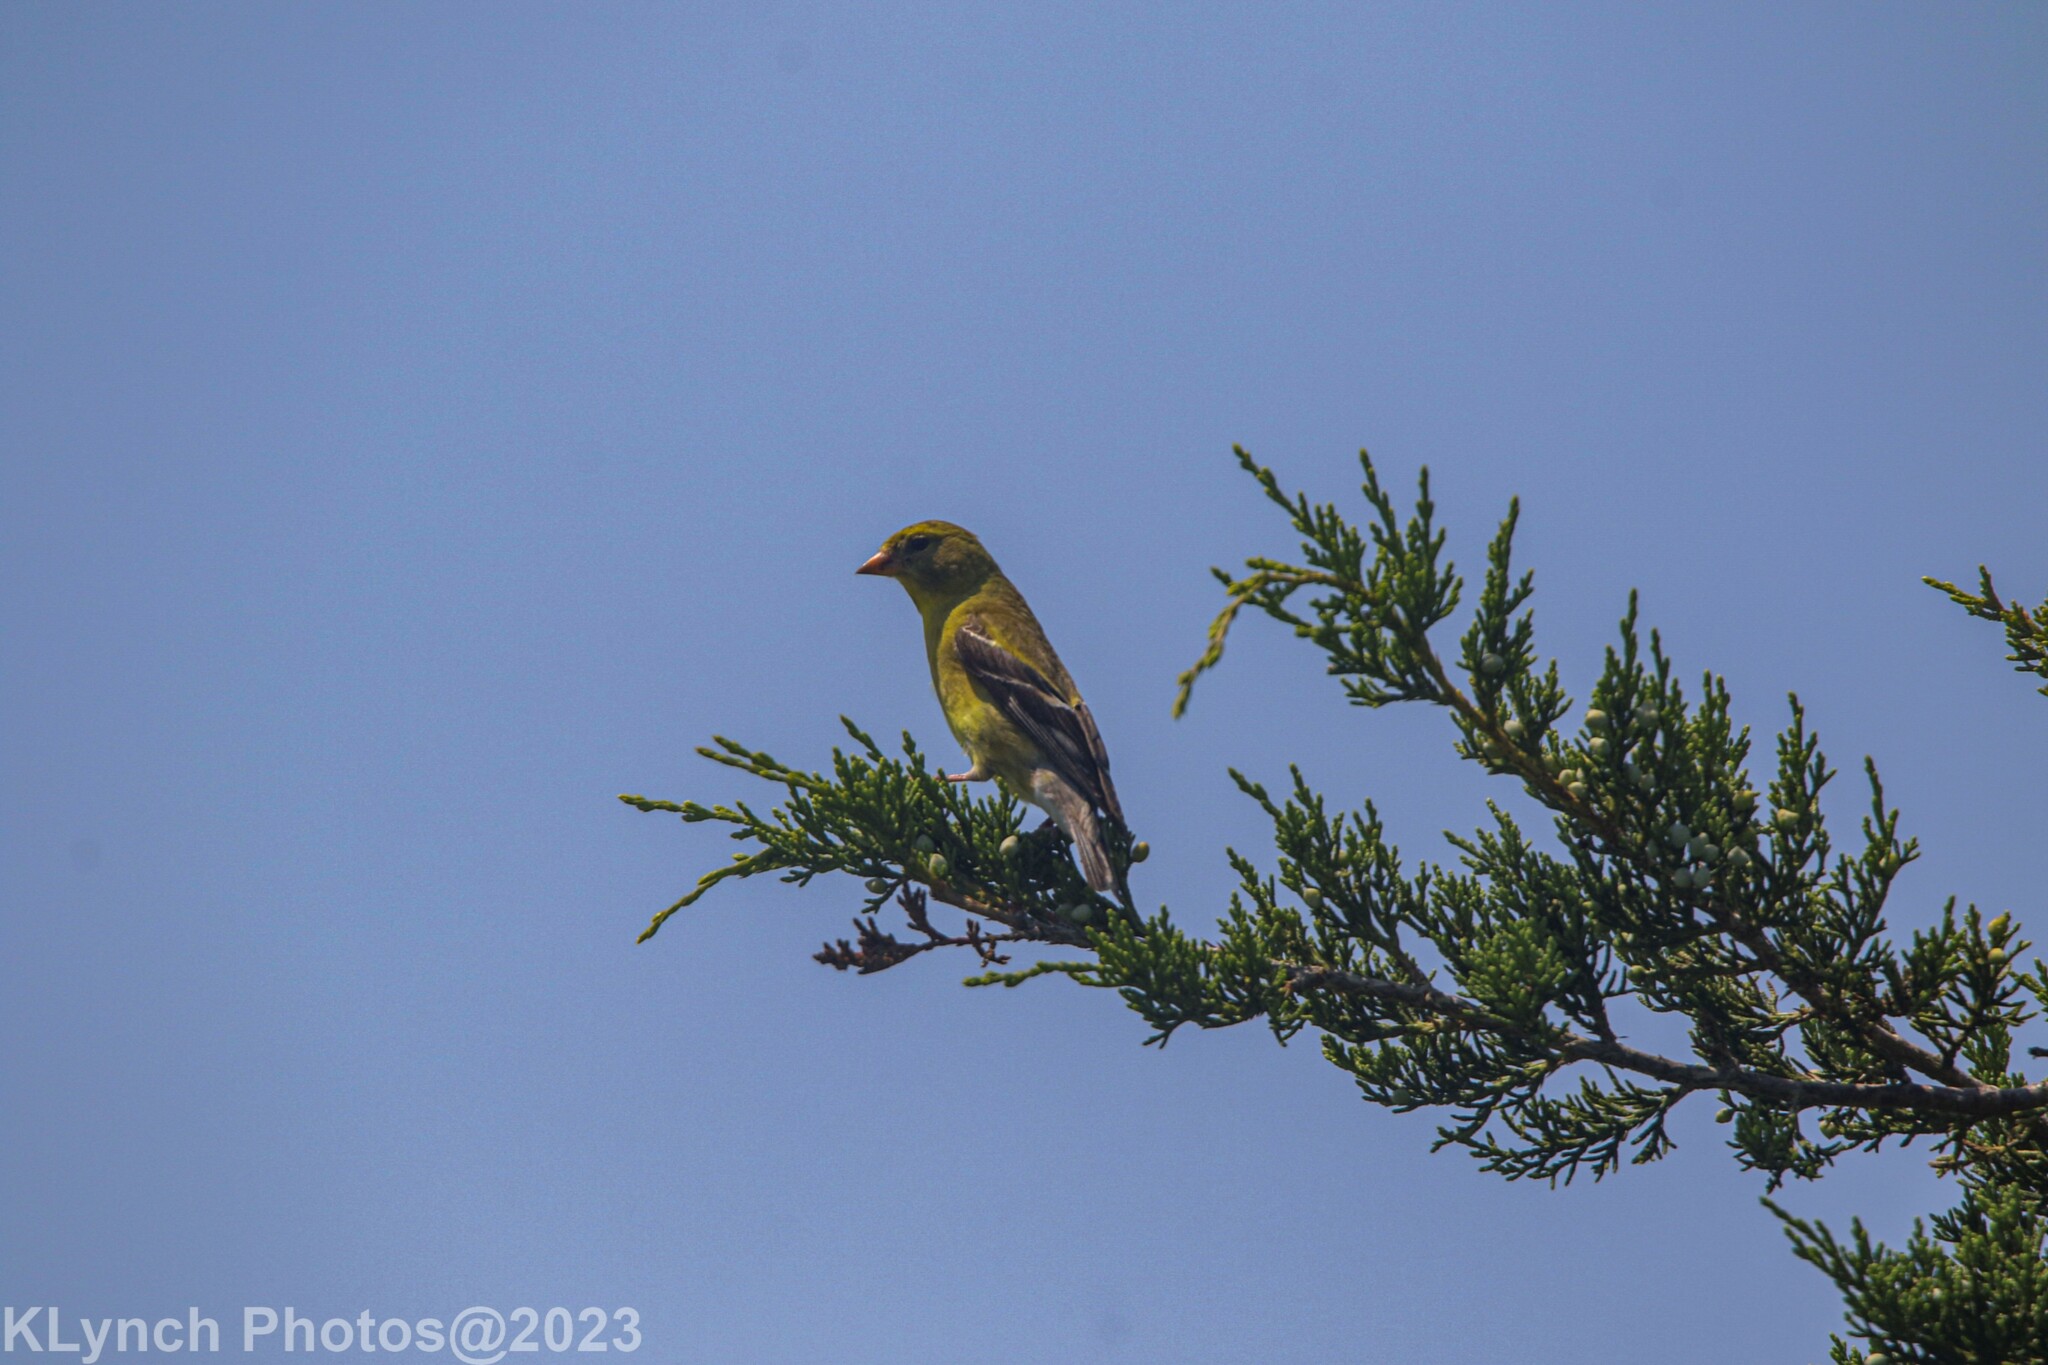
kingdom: Animalia
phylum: Chordata
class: Aves
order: Passeriformes
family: Fringillidae
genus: Spinus
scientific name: Spinus tristis
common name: American goldfinch
